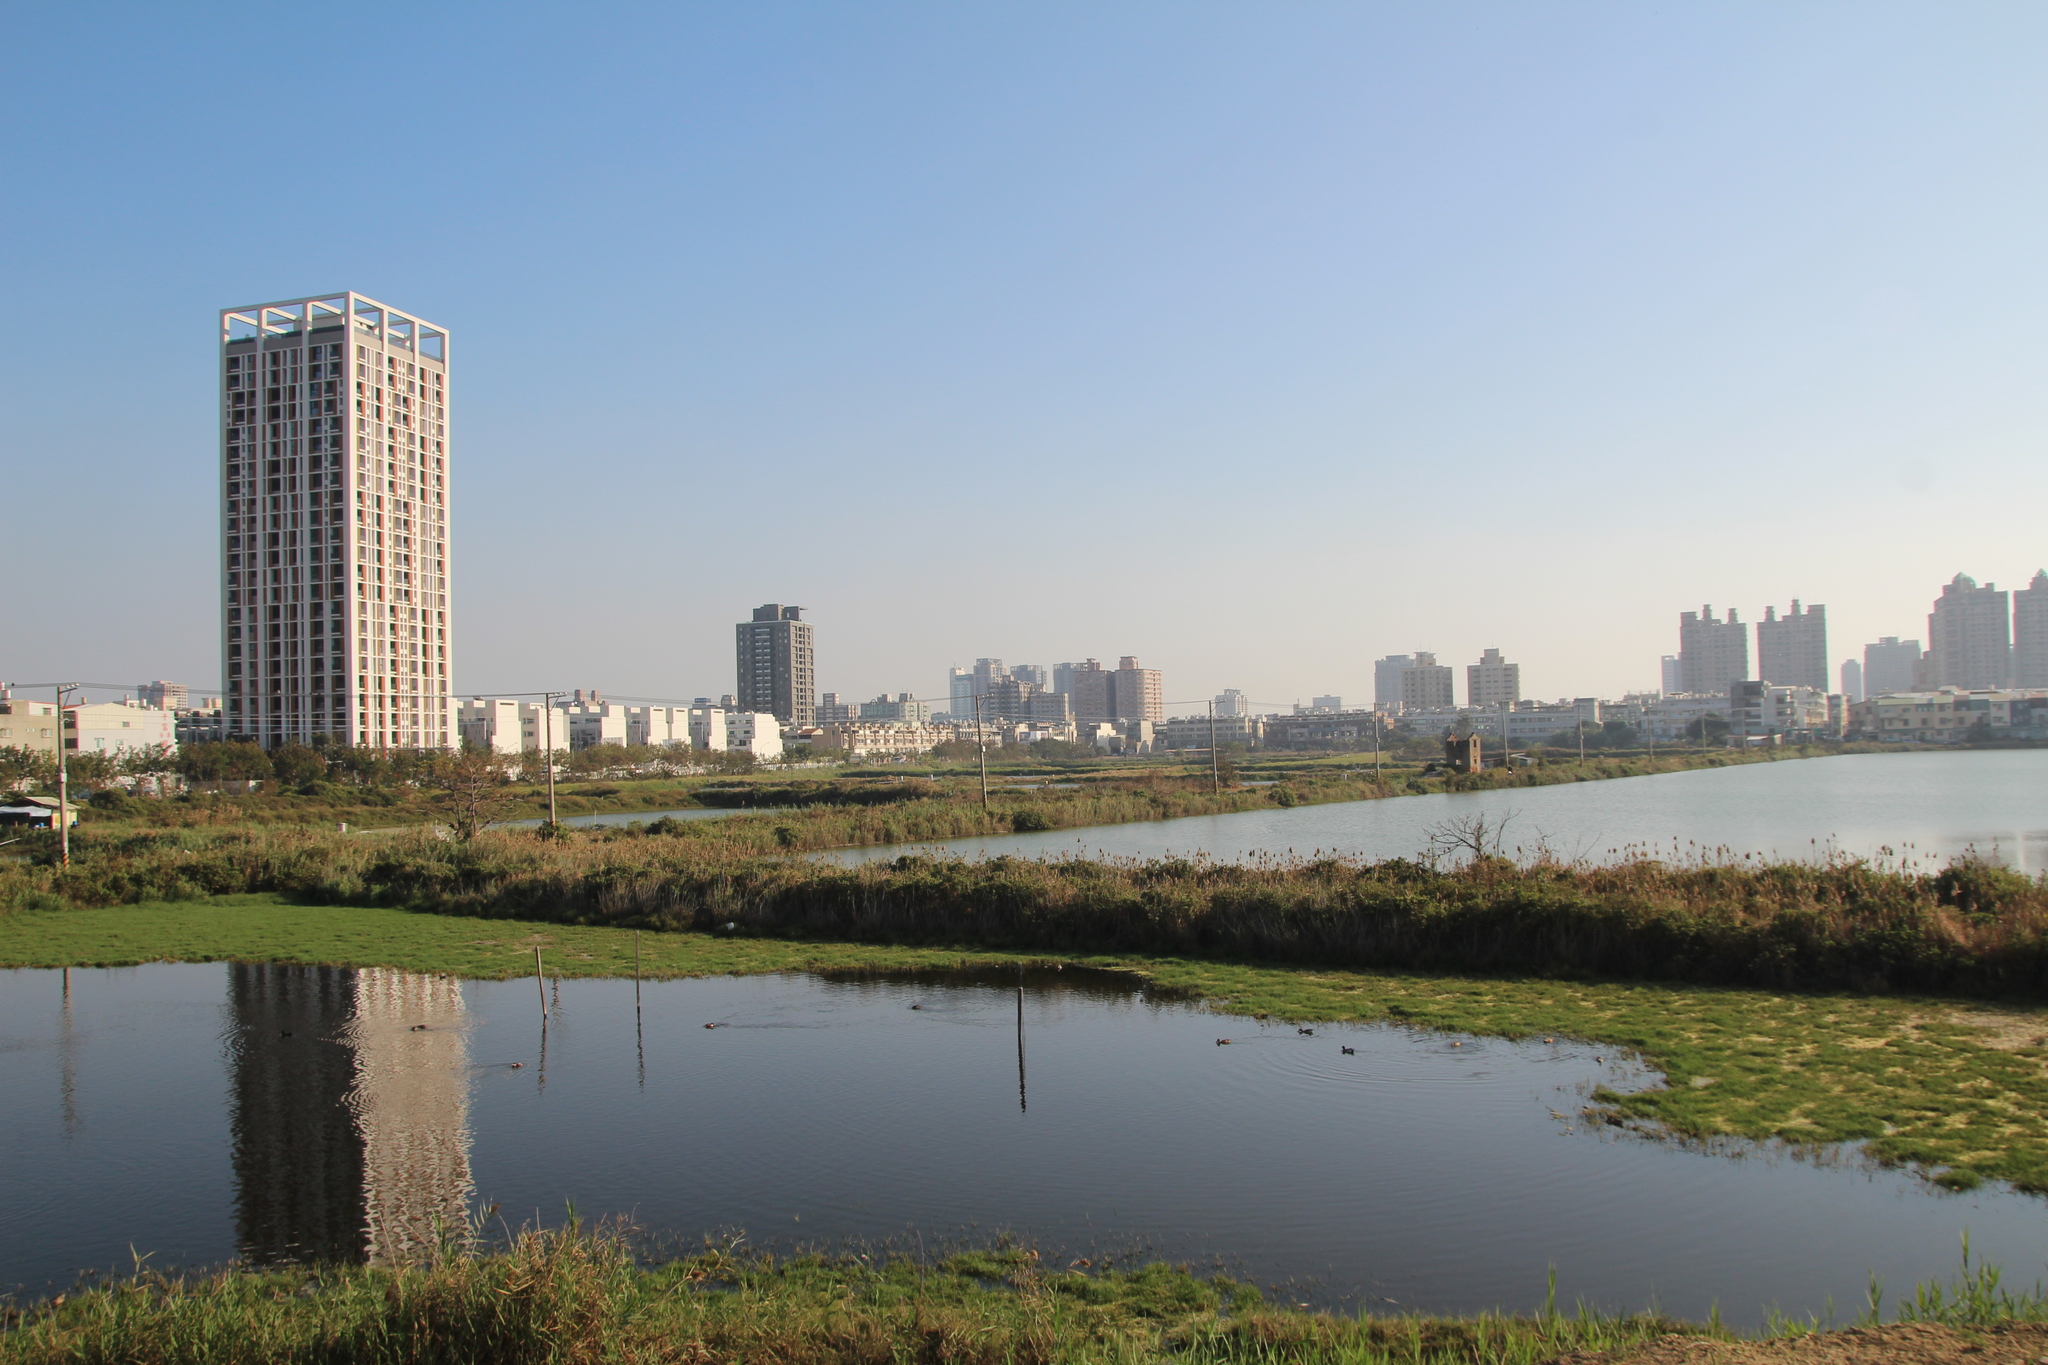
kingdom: Animalia
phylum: Chordata
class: Aves
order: Anseriformes
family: Anatidae
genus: Spatula
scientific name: Spatula clypeata
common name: Northern shoveler
